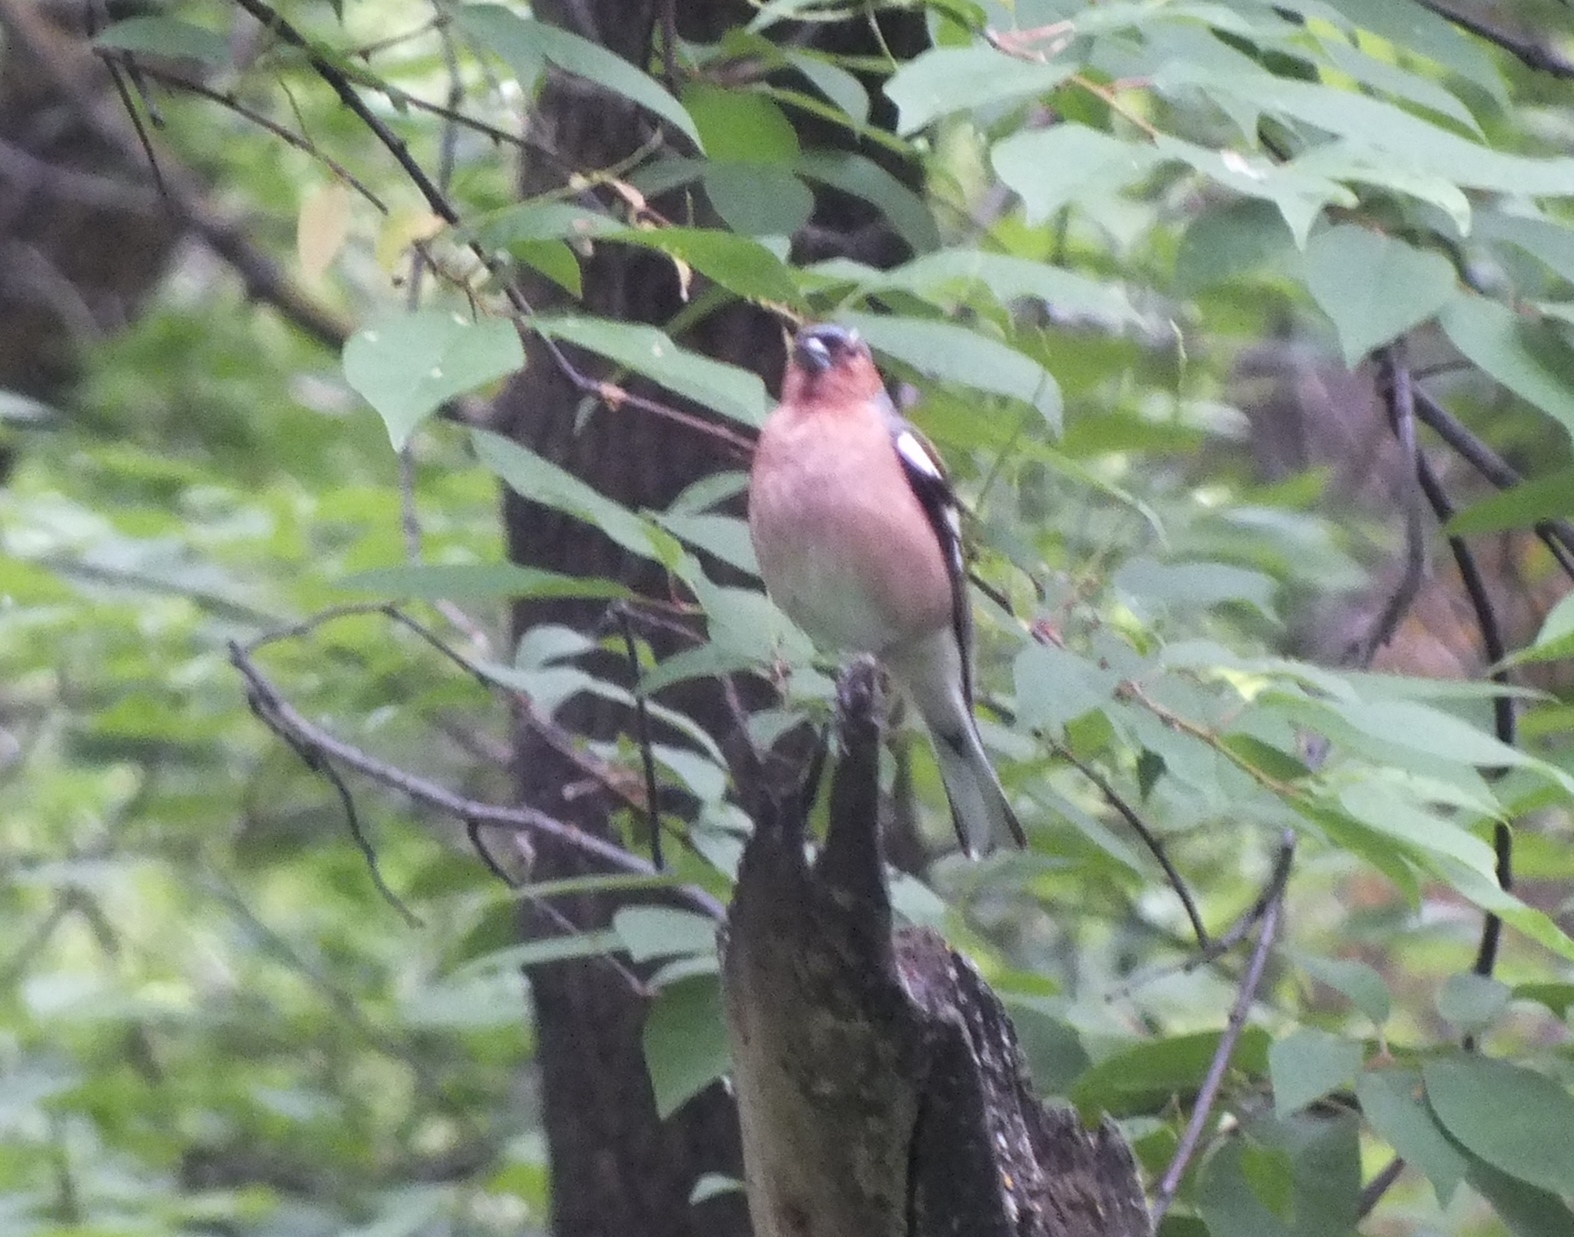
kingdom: Animalia
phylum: Chordata
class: Aves
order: Passeriformes
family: Fringillidae
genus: Fringilla
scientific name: Fringilla coelebs
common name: Common chaffinch
